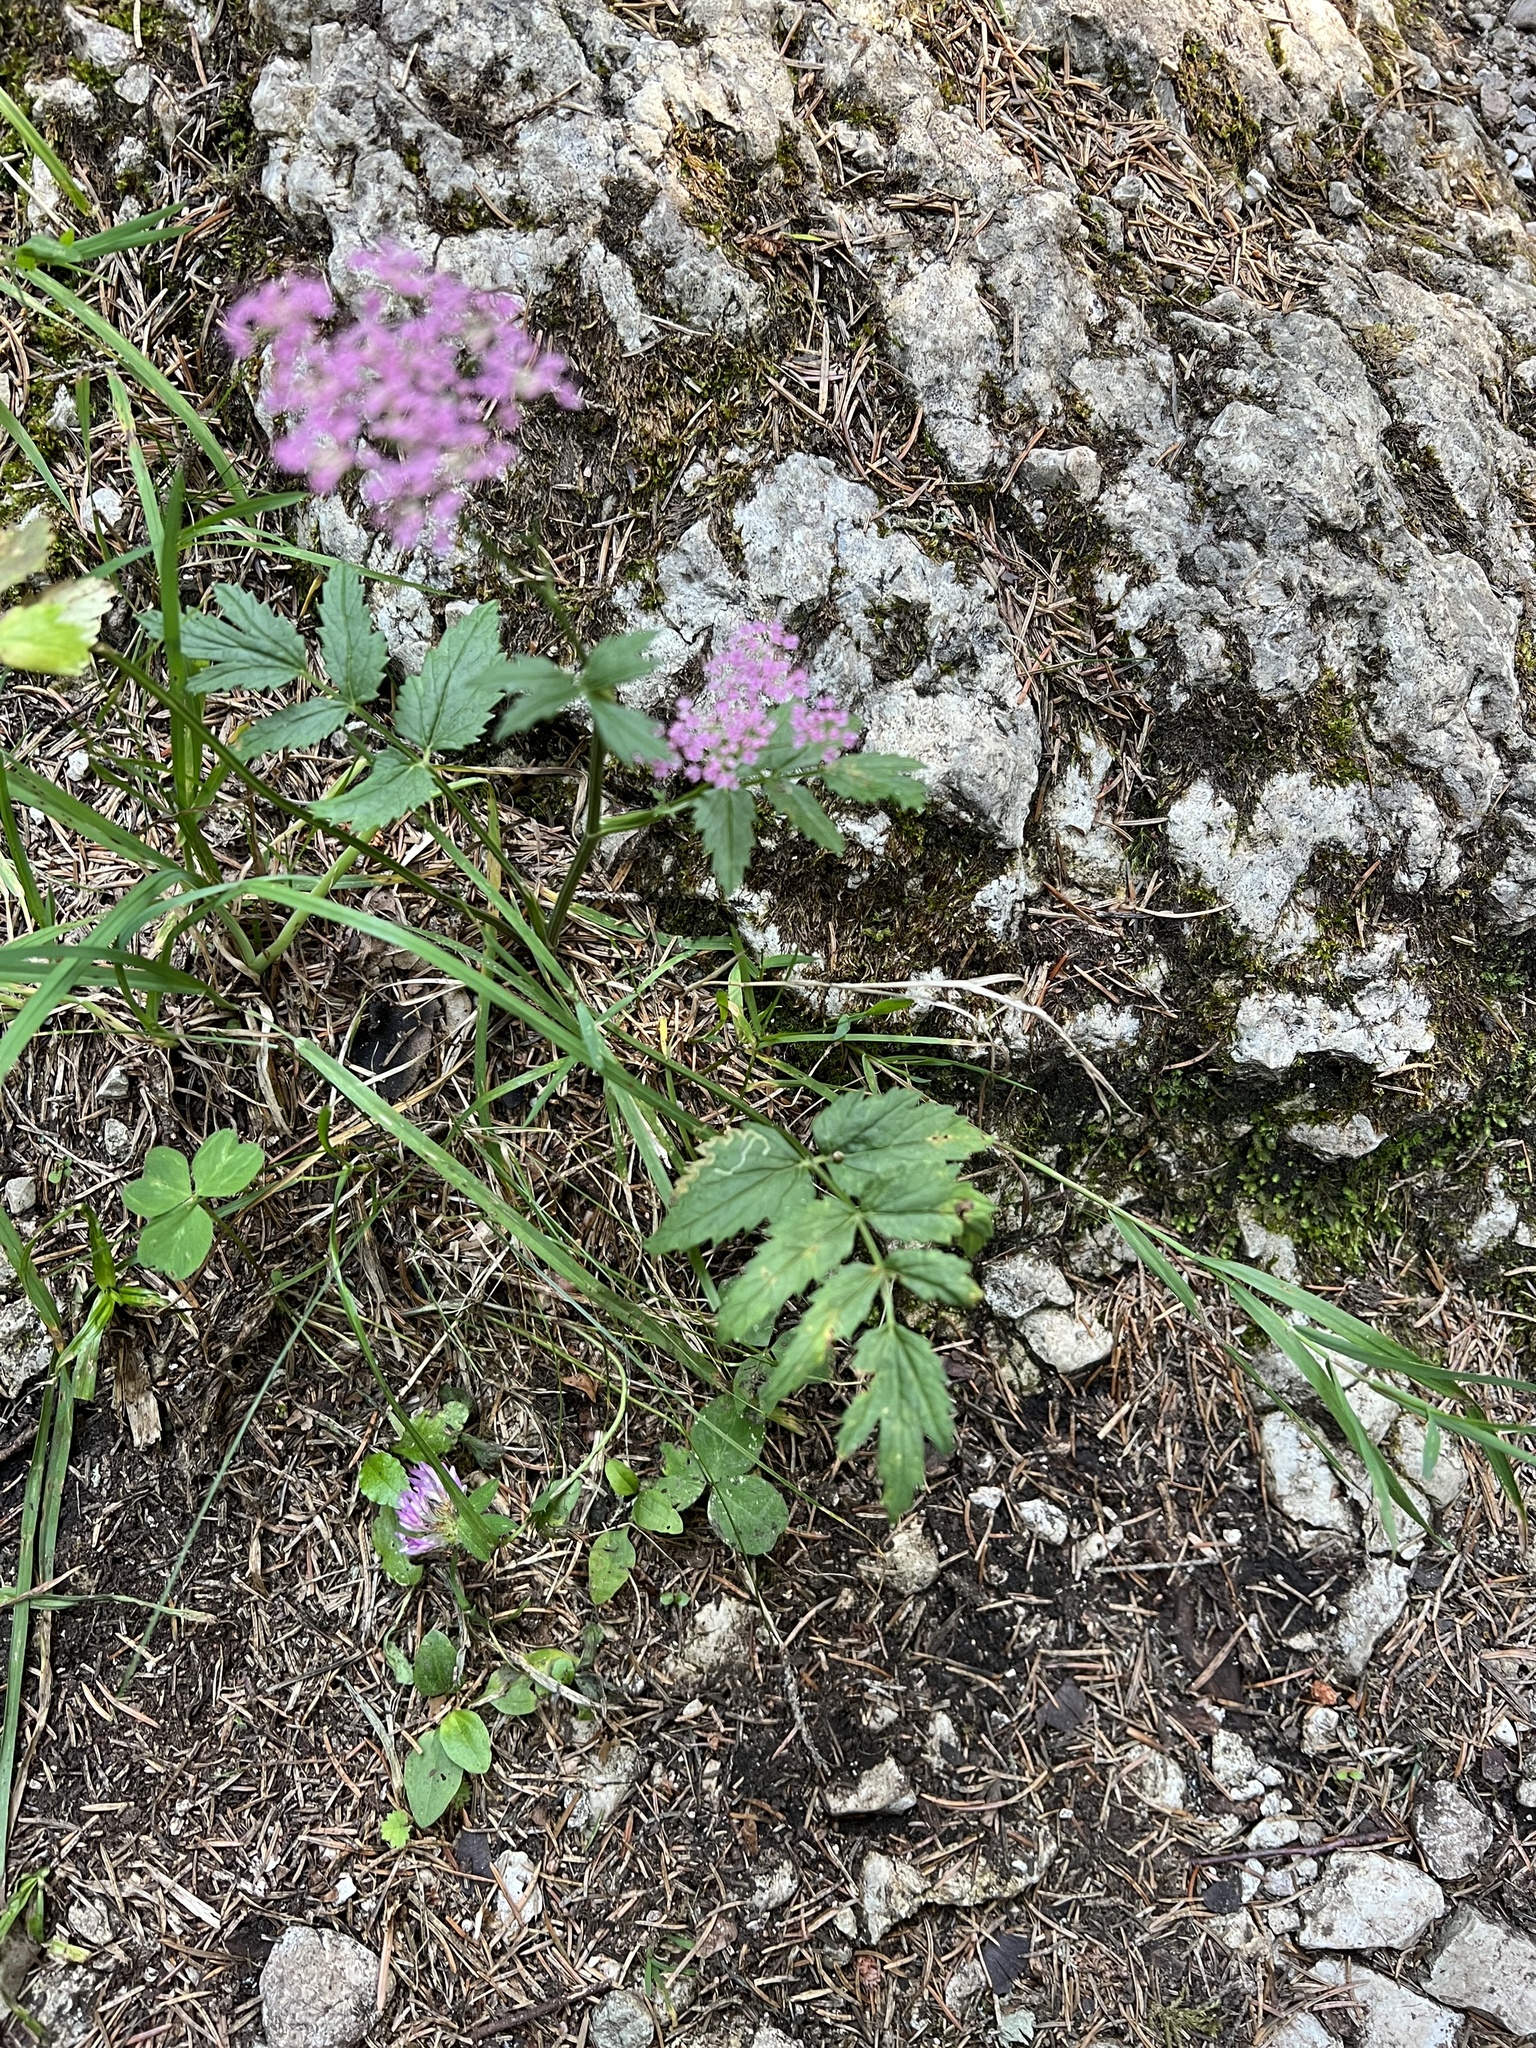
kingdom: Plantae
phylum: Tracheophyta
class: Magnoliopsida
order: Apiales
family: Apiaceae
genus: Pimpinella
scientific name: Pimpinella major
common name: Greater burnet-saxifrage
